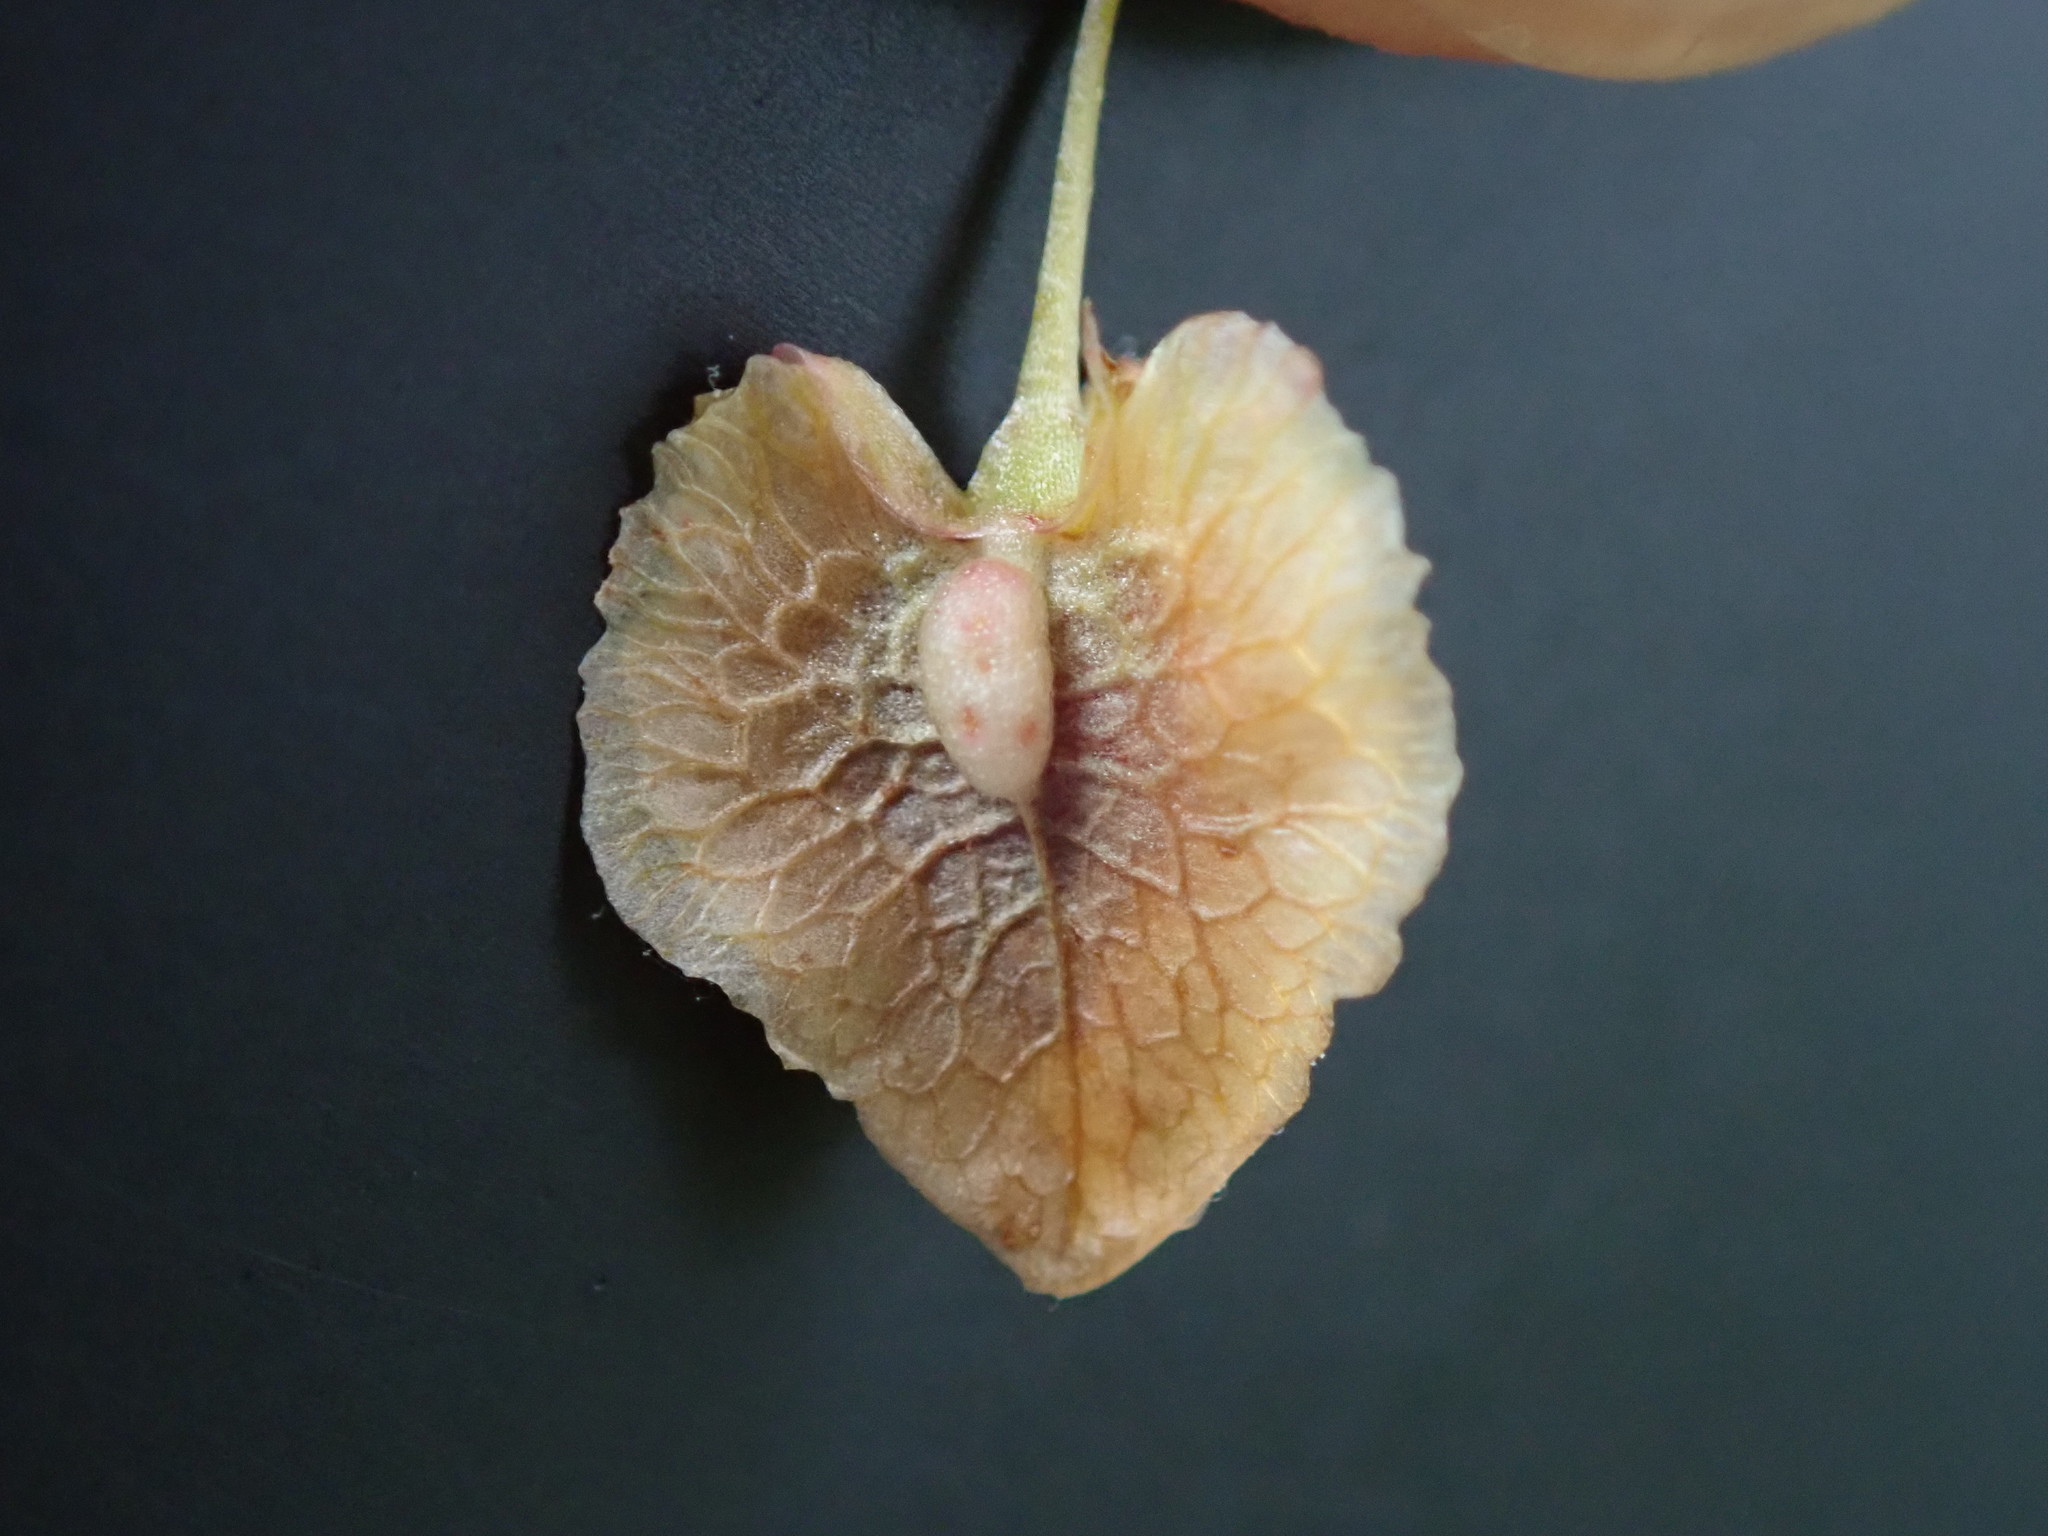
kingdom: Plantae
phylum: Tracheophyta
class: Magnoliopsida
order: Caryophyllales
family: Polygonaceae
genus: Rumex
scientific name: Rumex cristatus
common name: Greek dock
